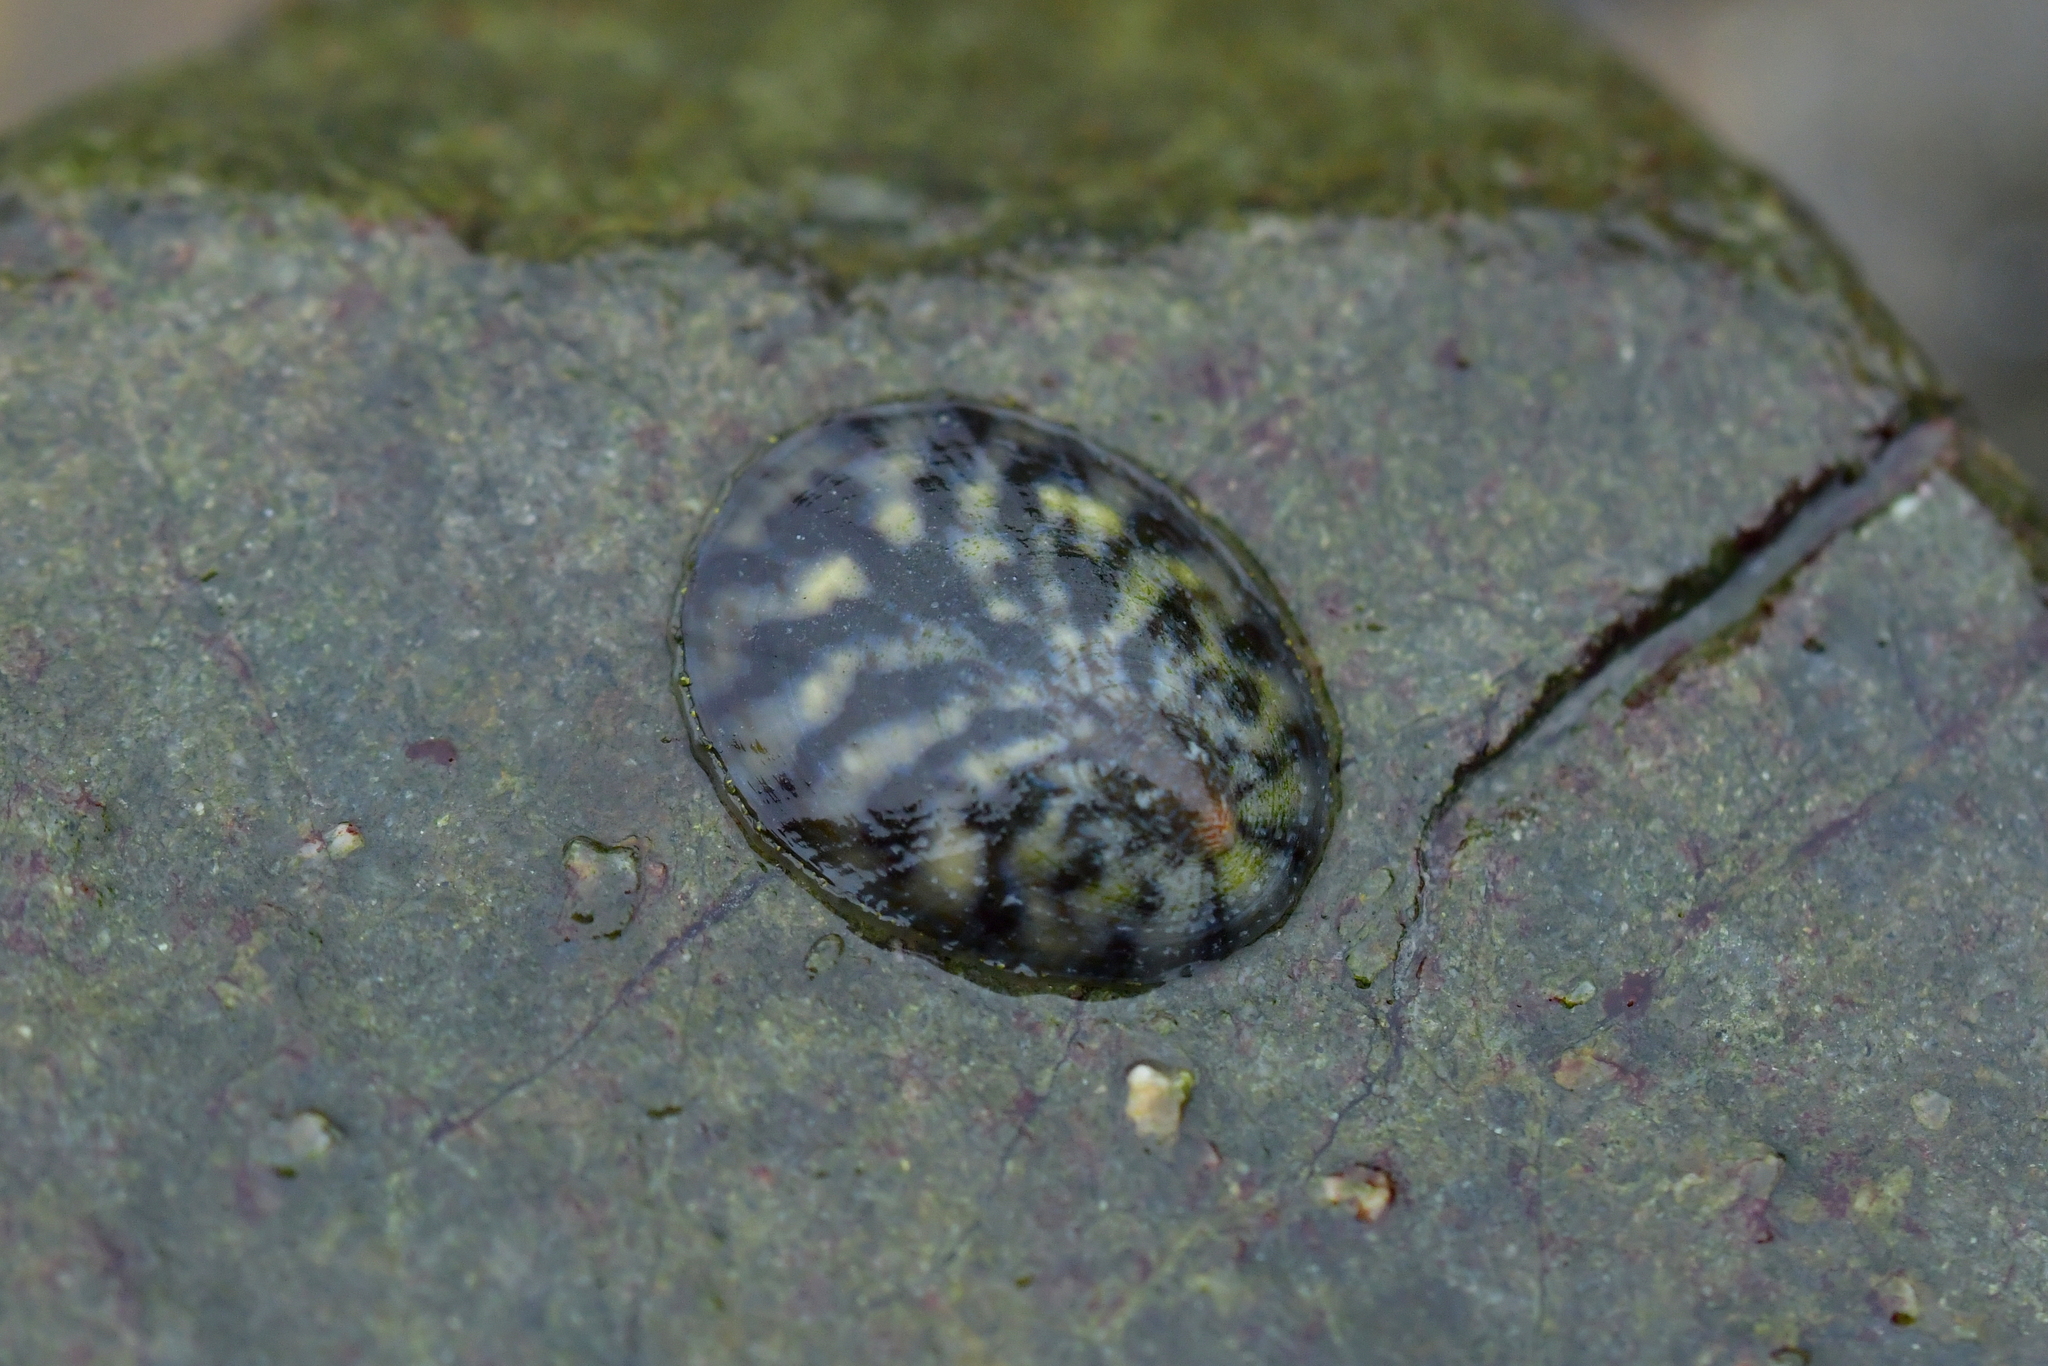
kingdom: Animalia
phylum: Mollusca
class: Gastropoda
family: Nacellidae
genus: Cellana
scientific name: Cellana radians
